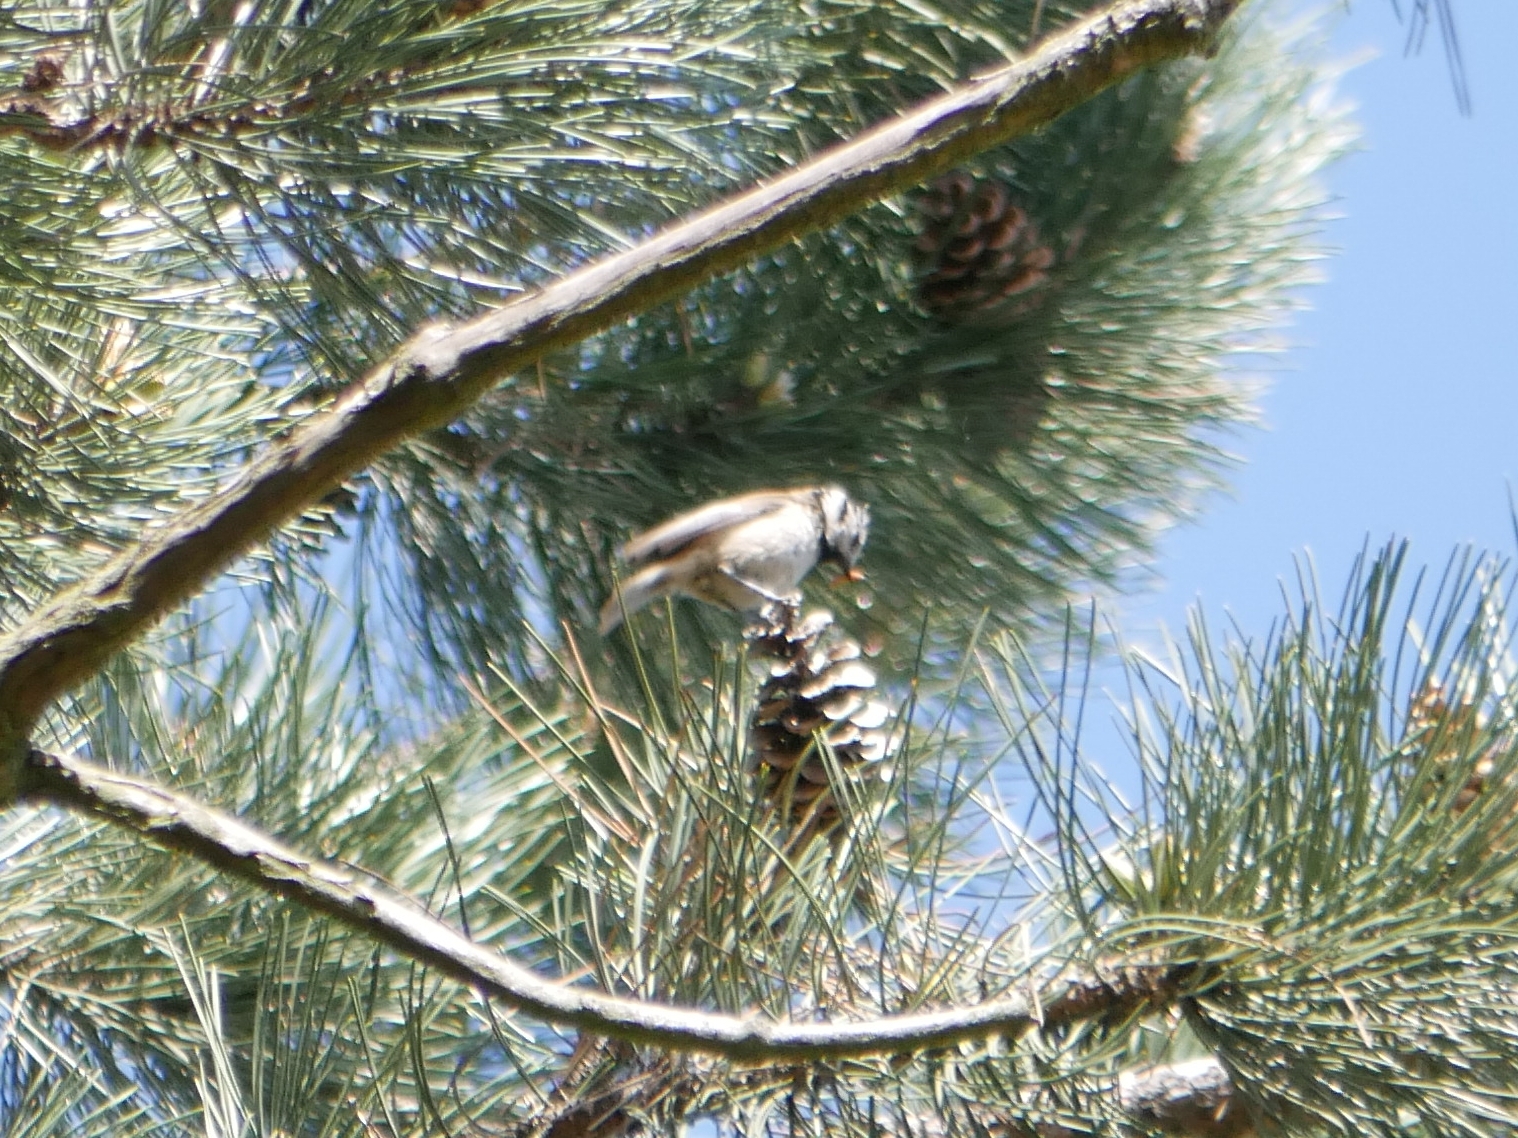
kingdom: Animalia
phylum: Chordata
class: Aves
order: Passeriformes
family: Paridae
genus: Lophophanes
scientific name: Lophophanes cristatus
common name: European crested tit
